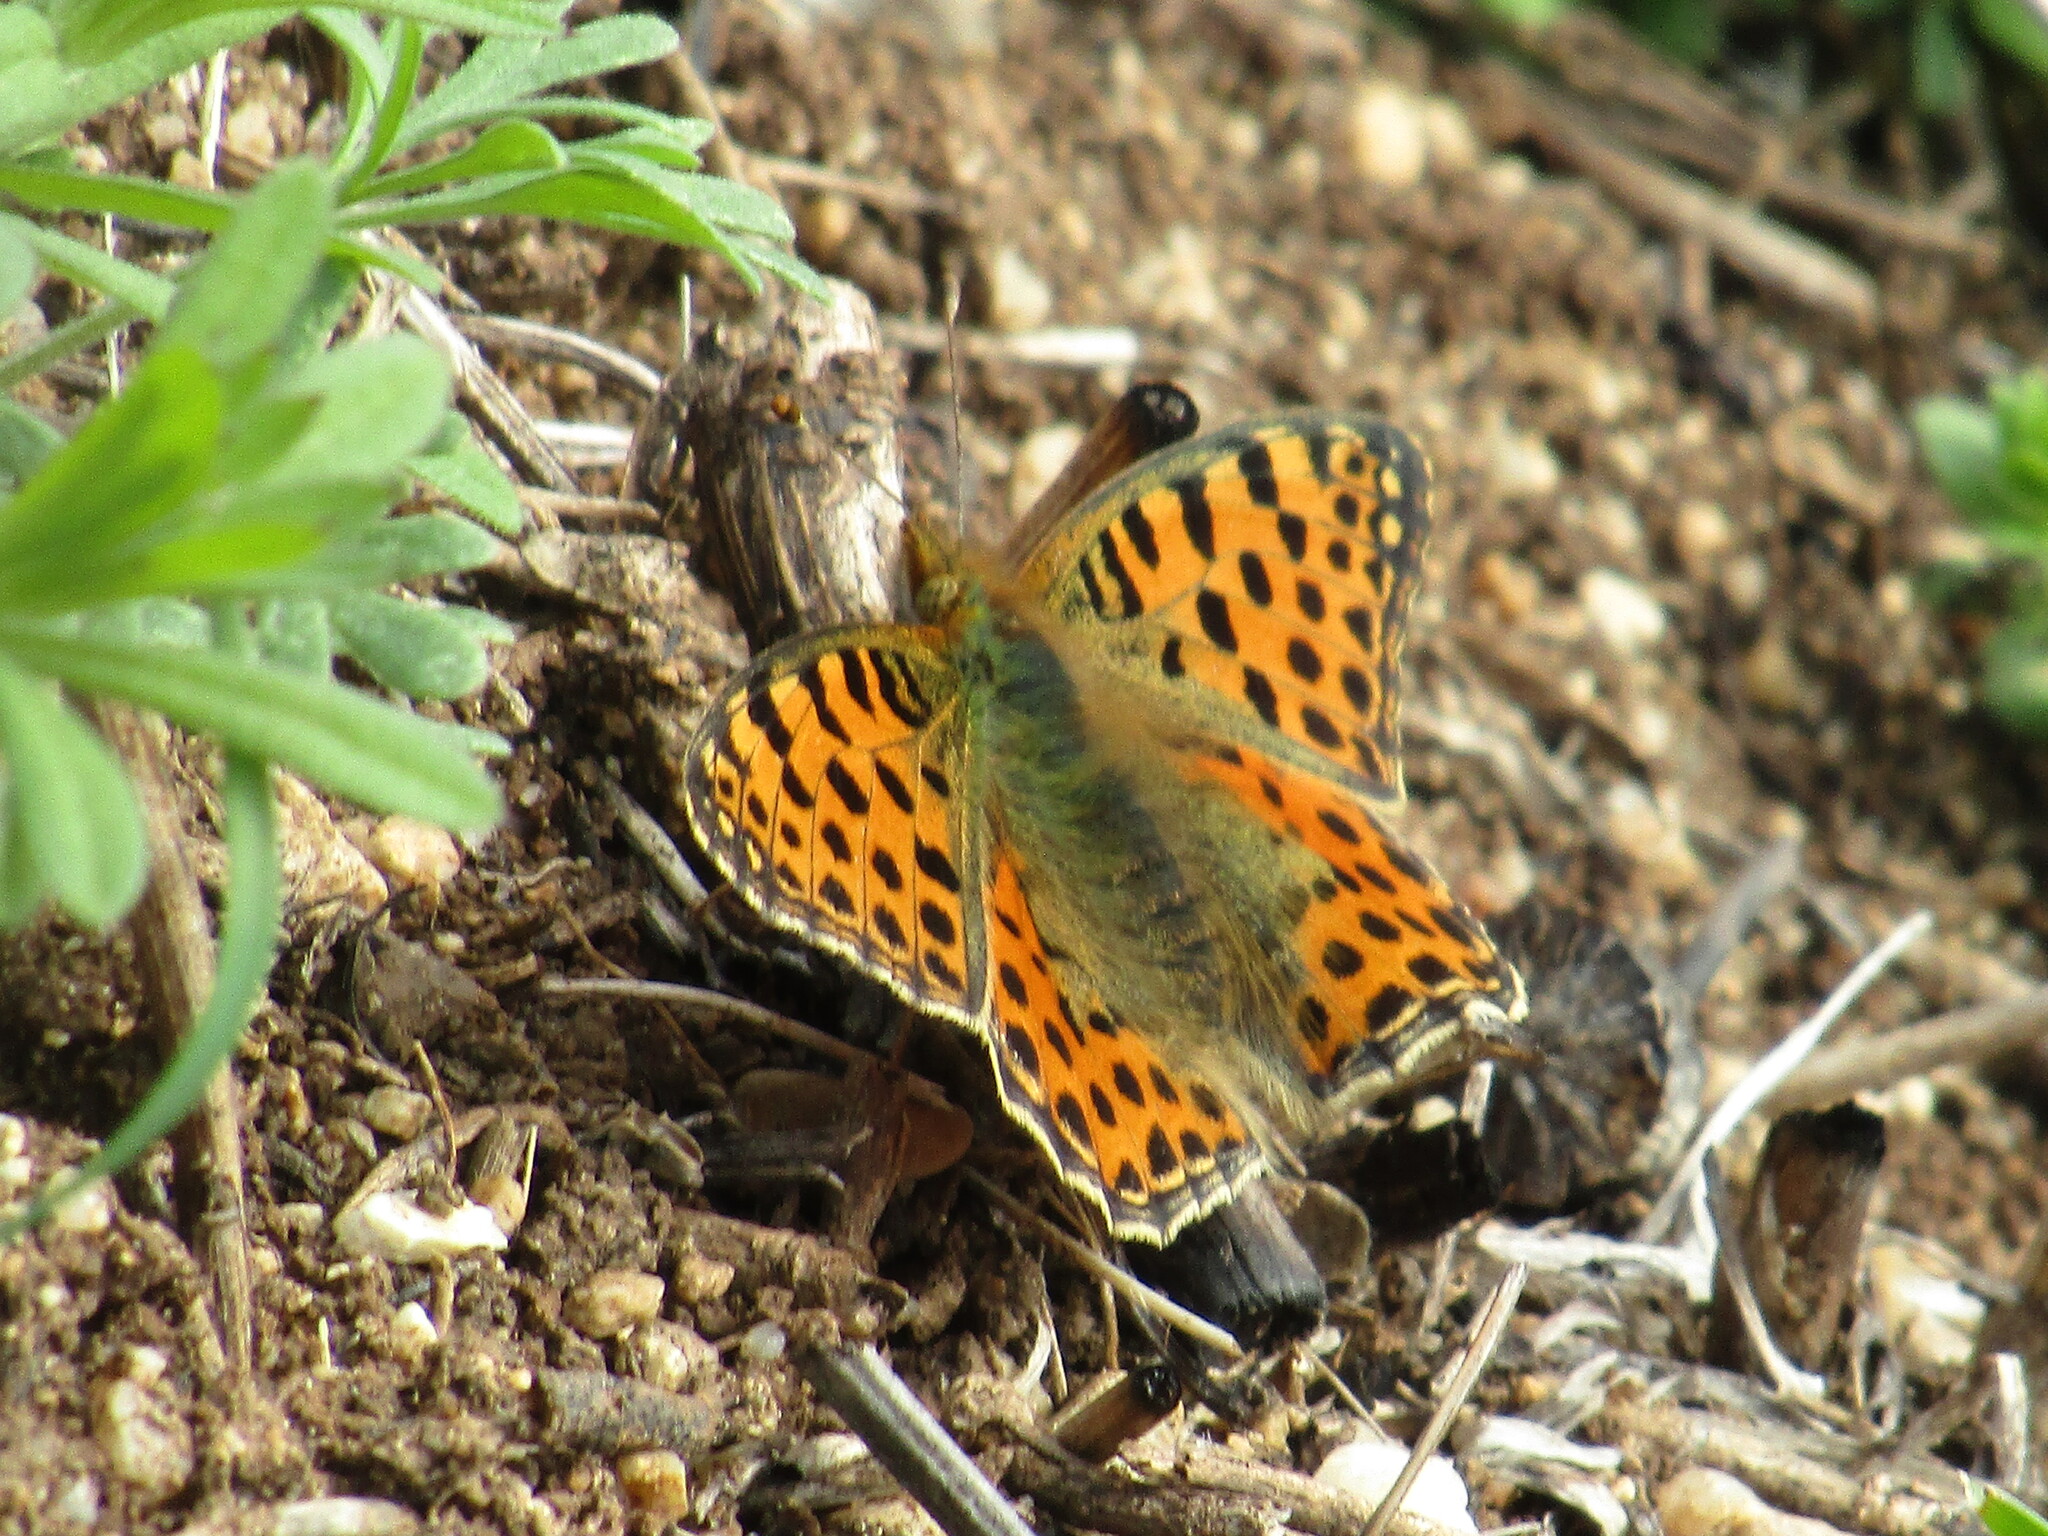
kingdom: Animalia
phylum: Arthropoda
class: Insecta
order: Lepidoptera
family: Nymphalidae
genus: Issoria
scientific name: Issoria lathonia
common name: Queen of spain fritillary
